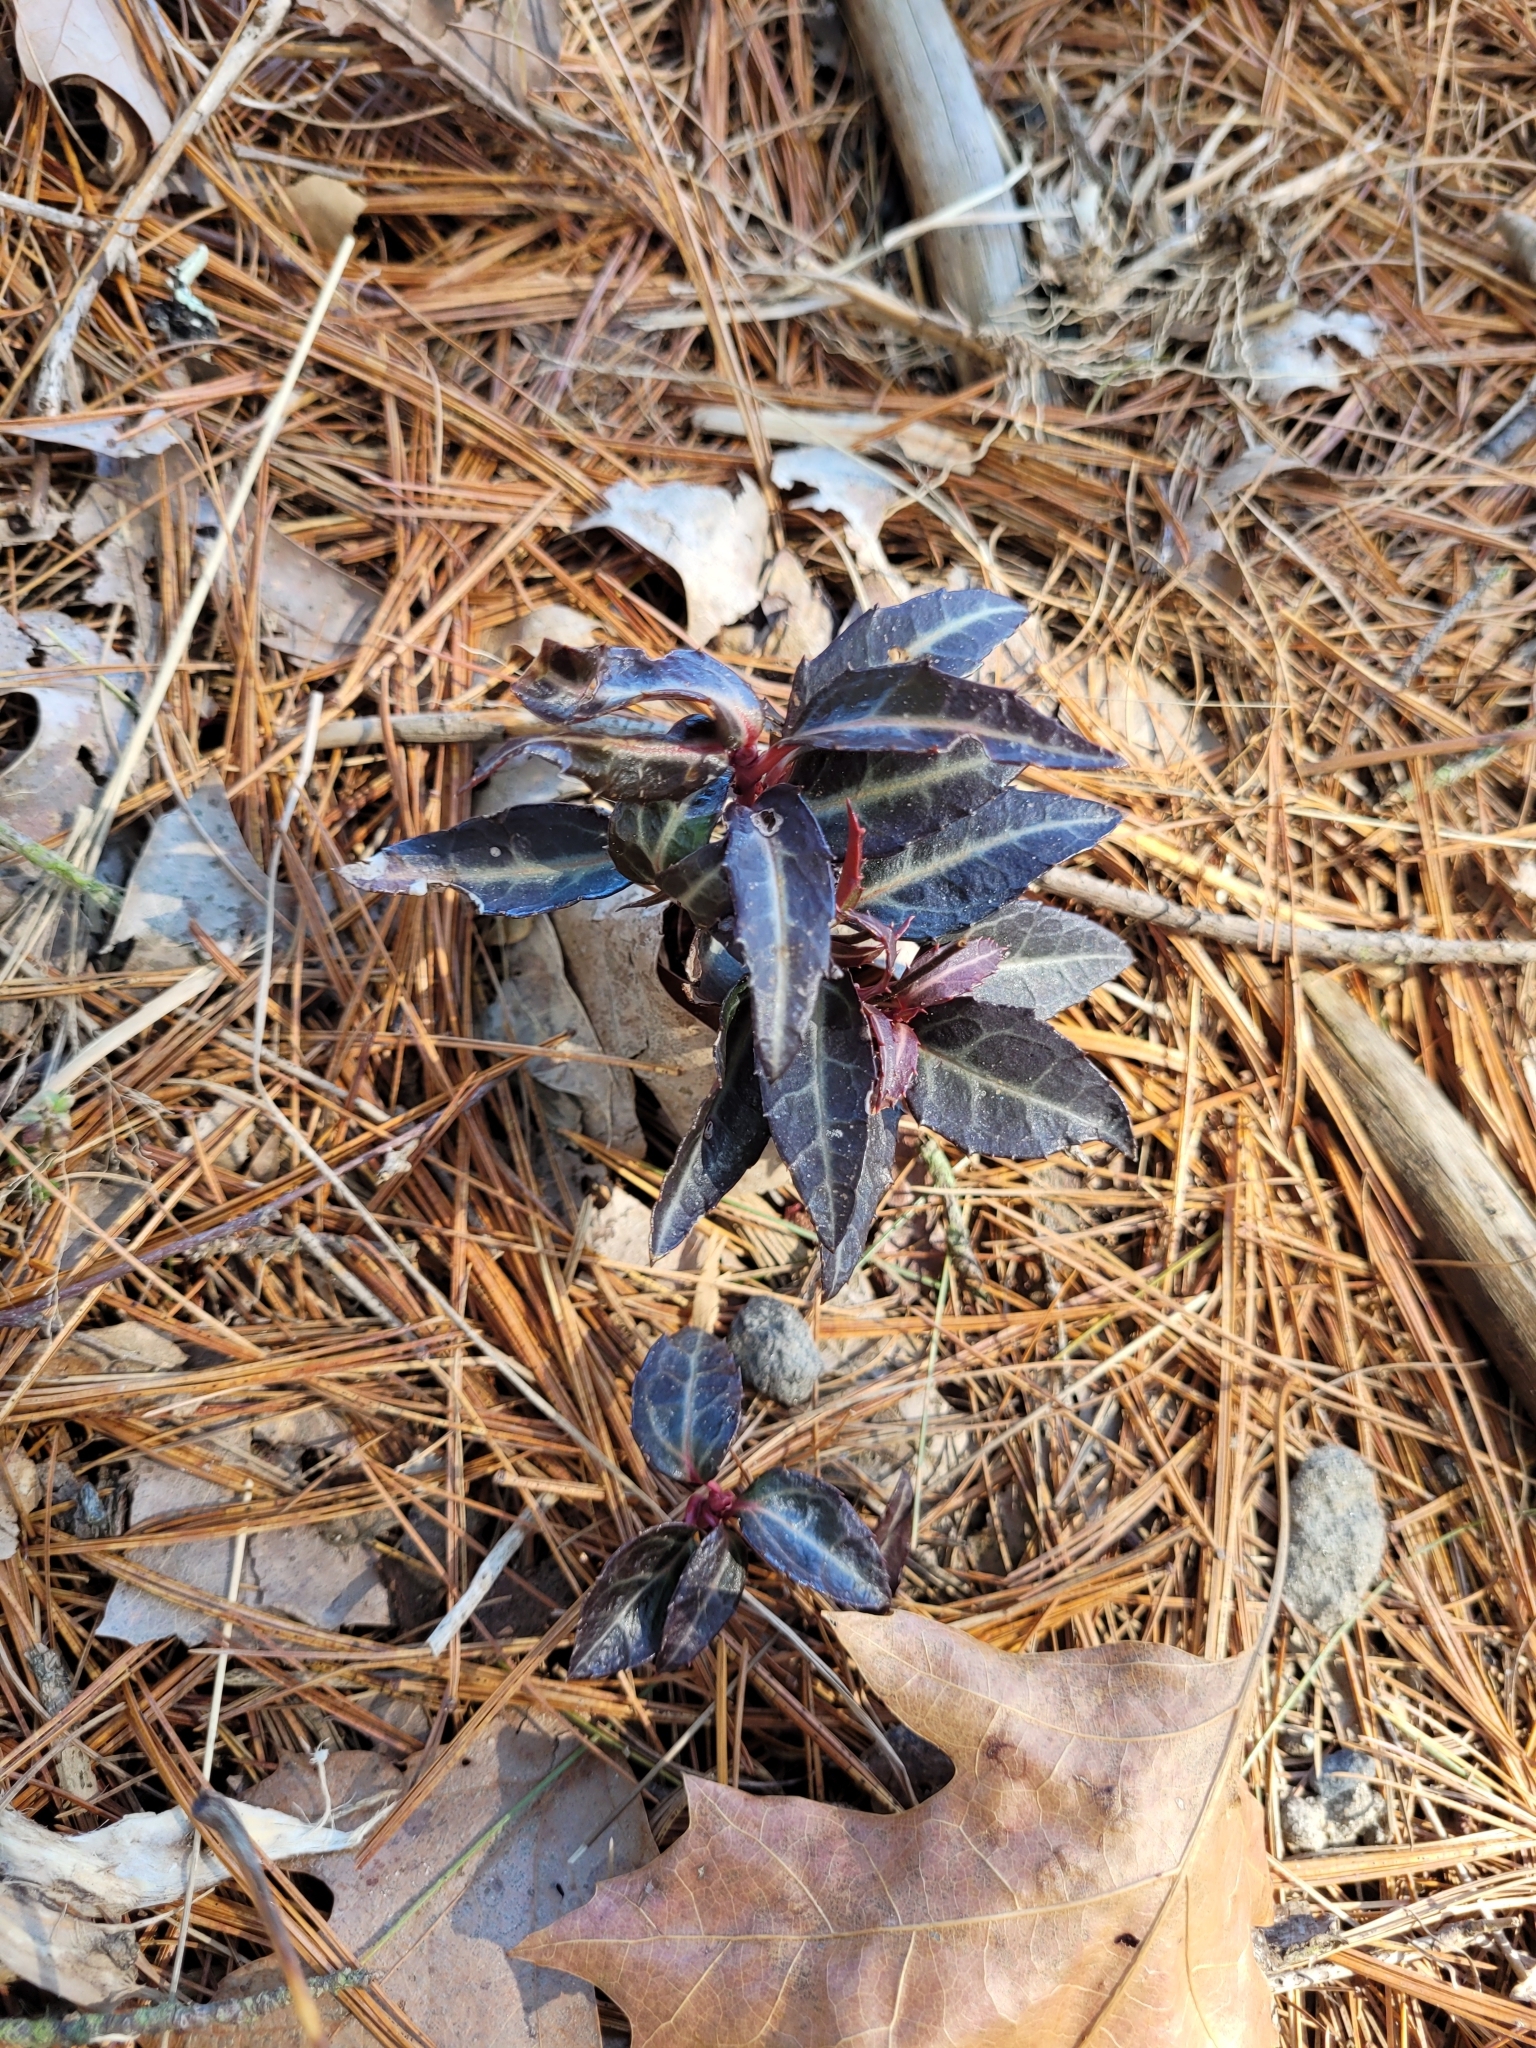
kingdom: Plantae
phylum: Tracheophyta
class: Magnoliopsida
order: Ericales
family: Ericaceae
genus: Chimaphila
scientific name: Chimaphila maculata
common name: Spotted pipsissewa
